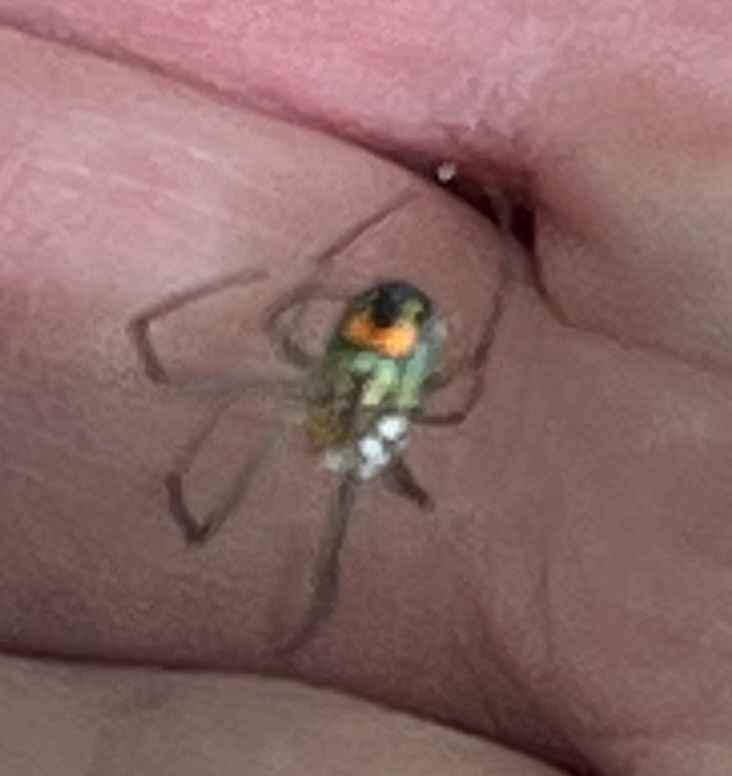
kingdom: Animalia
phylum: Arthropoda
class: Arachnida
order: Araneae
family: Tetragnathidae
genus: Leucauge
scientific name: Leucauge argyrobapta
